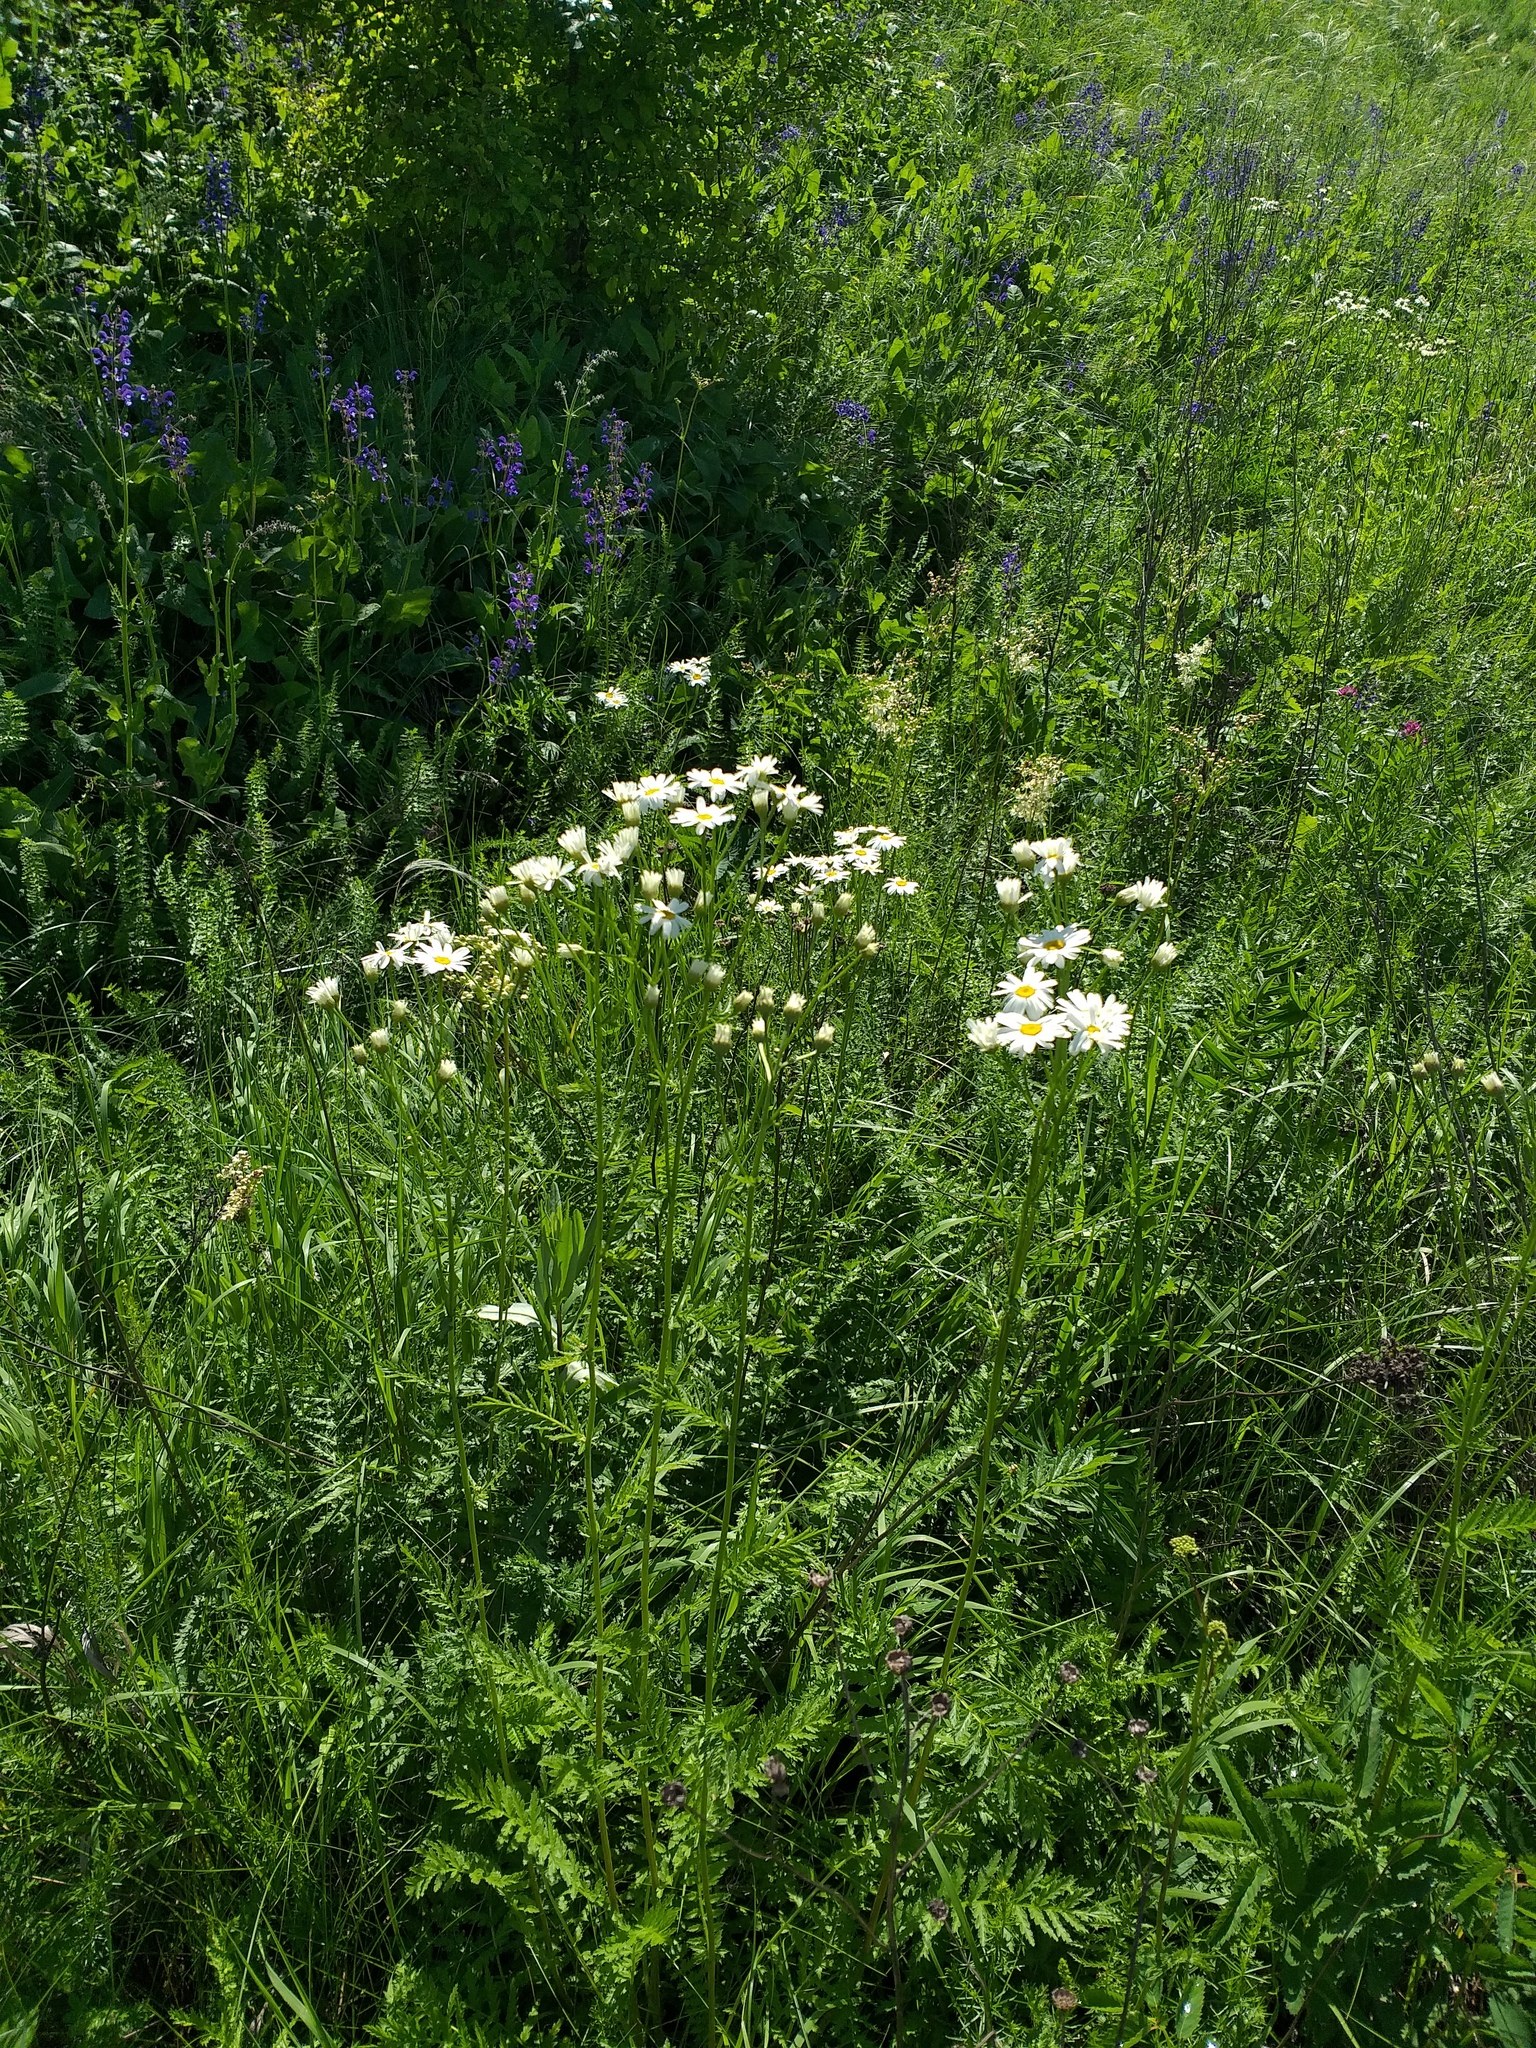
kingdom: Plantae
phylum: Tracheophyta
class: Magnoliopsida
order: Asterales
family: Asteraceae
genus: Tanacetum
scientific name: Tanacetum corymbosum
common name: Scentless feverfew
